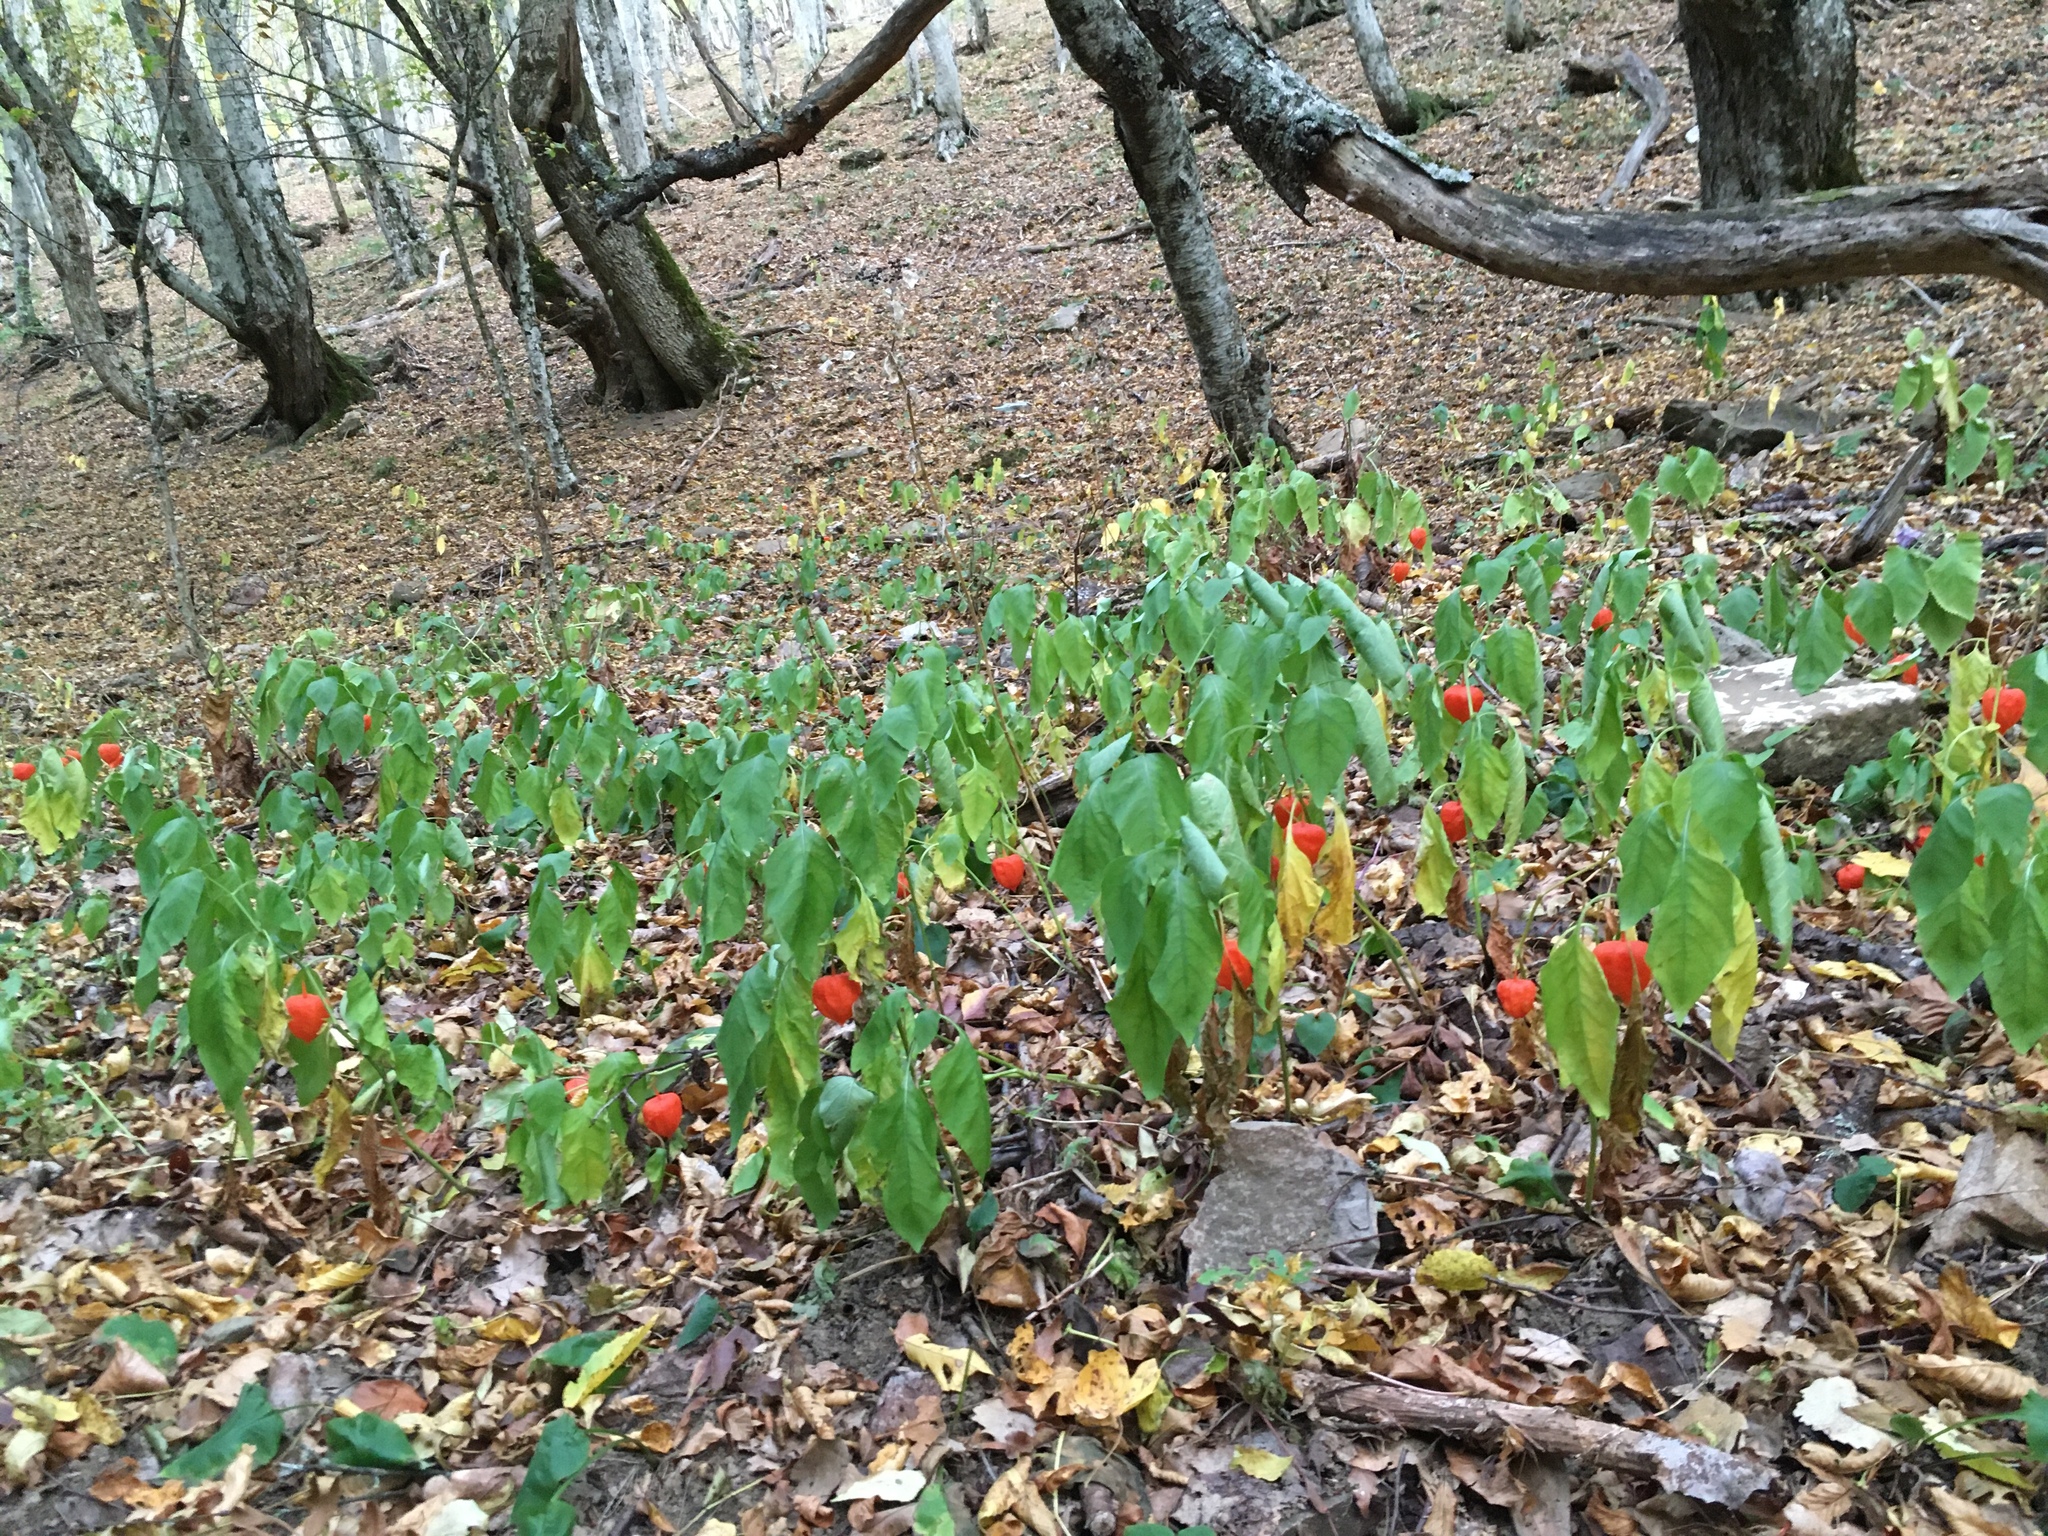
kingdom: Plantae
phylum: Tracheophyta
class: Magnoliopsida
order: Solanales
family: Solanaceae
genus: Alkekengi
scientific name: Alkekengi officinarum
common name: Japanese-lantern
